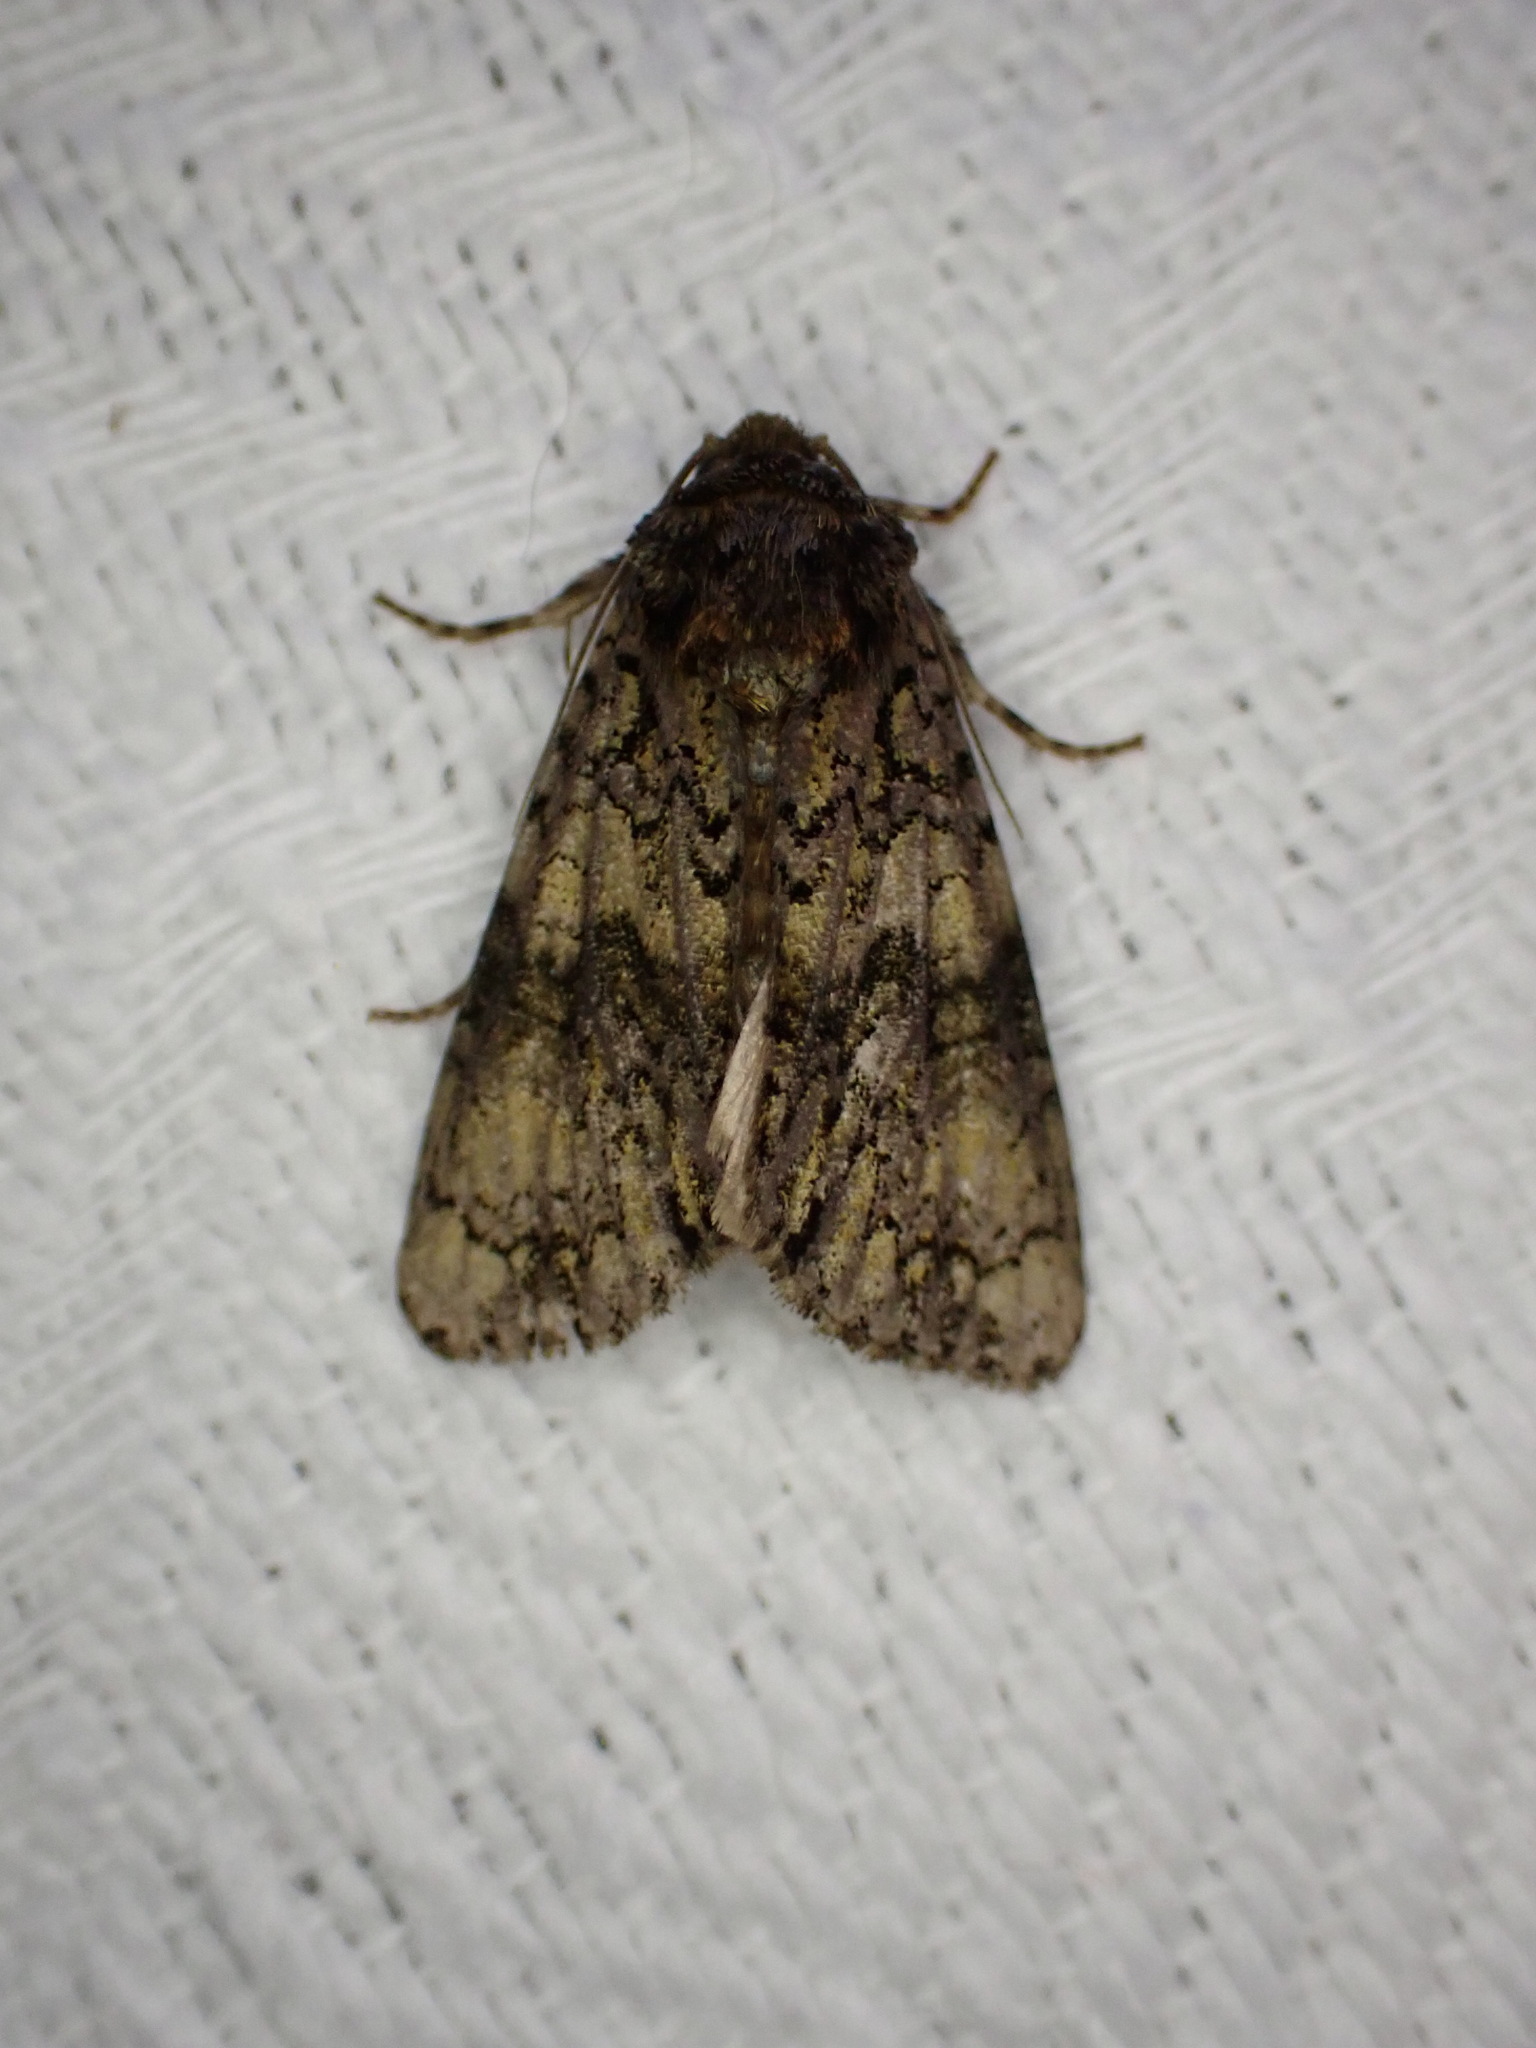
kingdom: Animalia
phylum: Arthropoda
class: Insecta
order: Lepidoptera
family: Noctuidae
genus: Craniophora
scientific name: Craniophora ligustri
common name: Coronet
